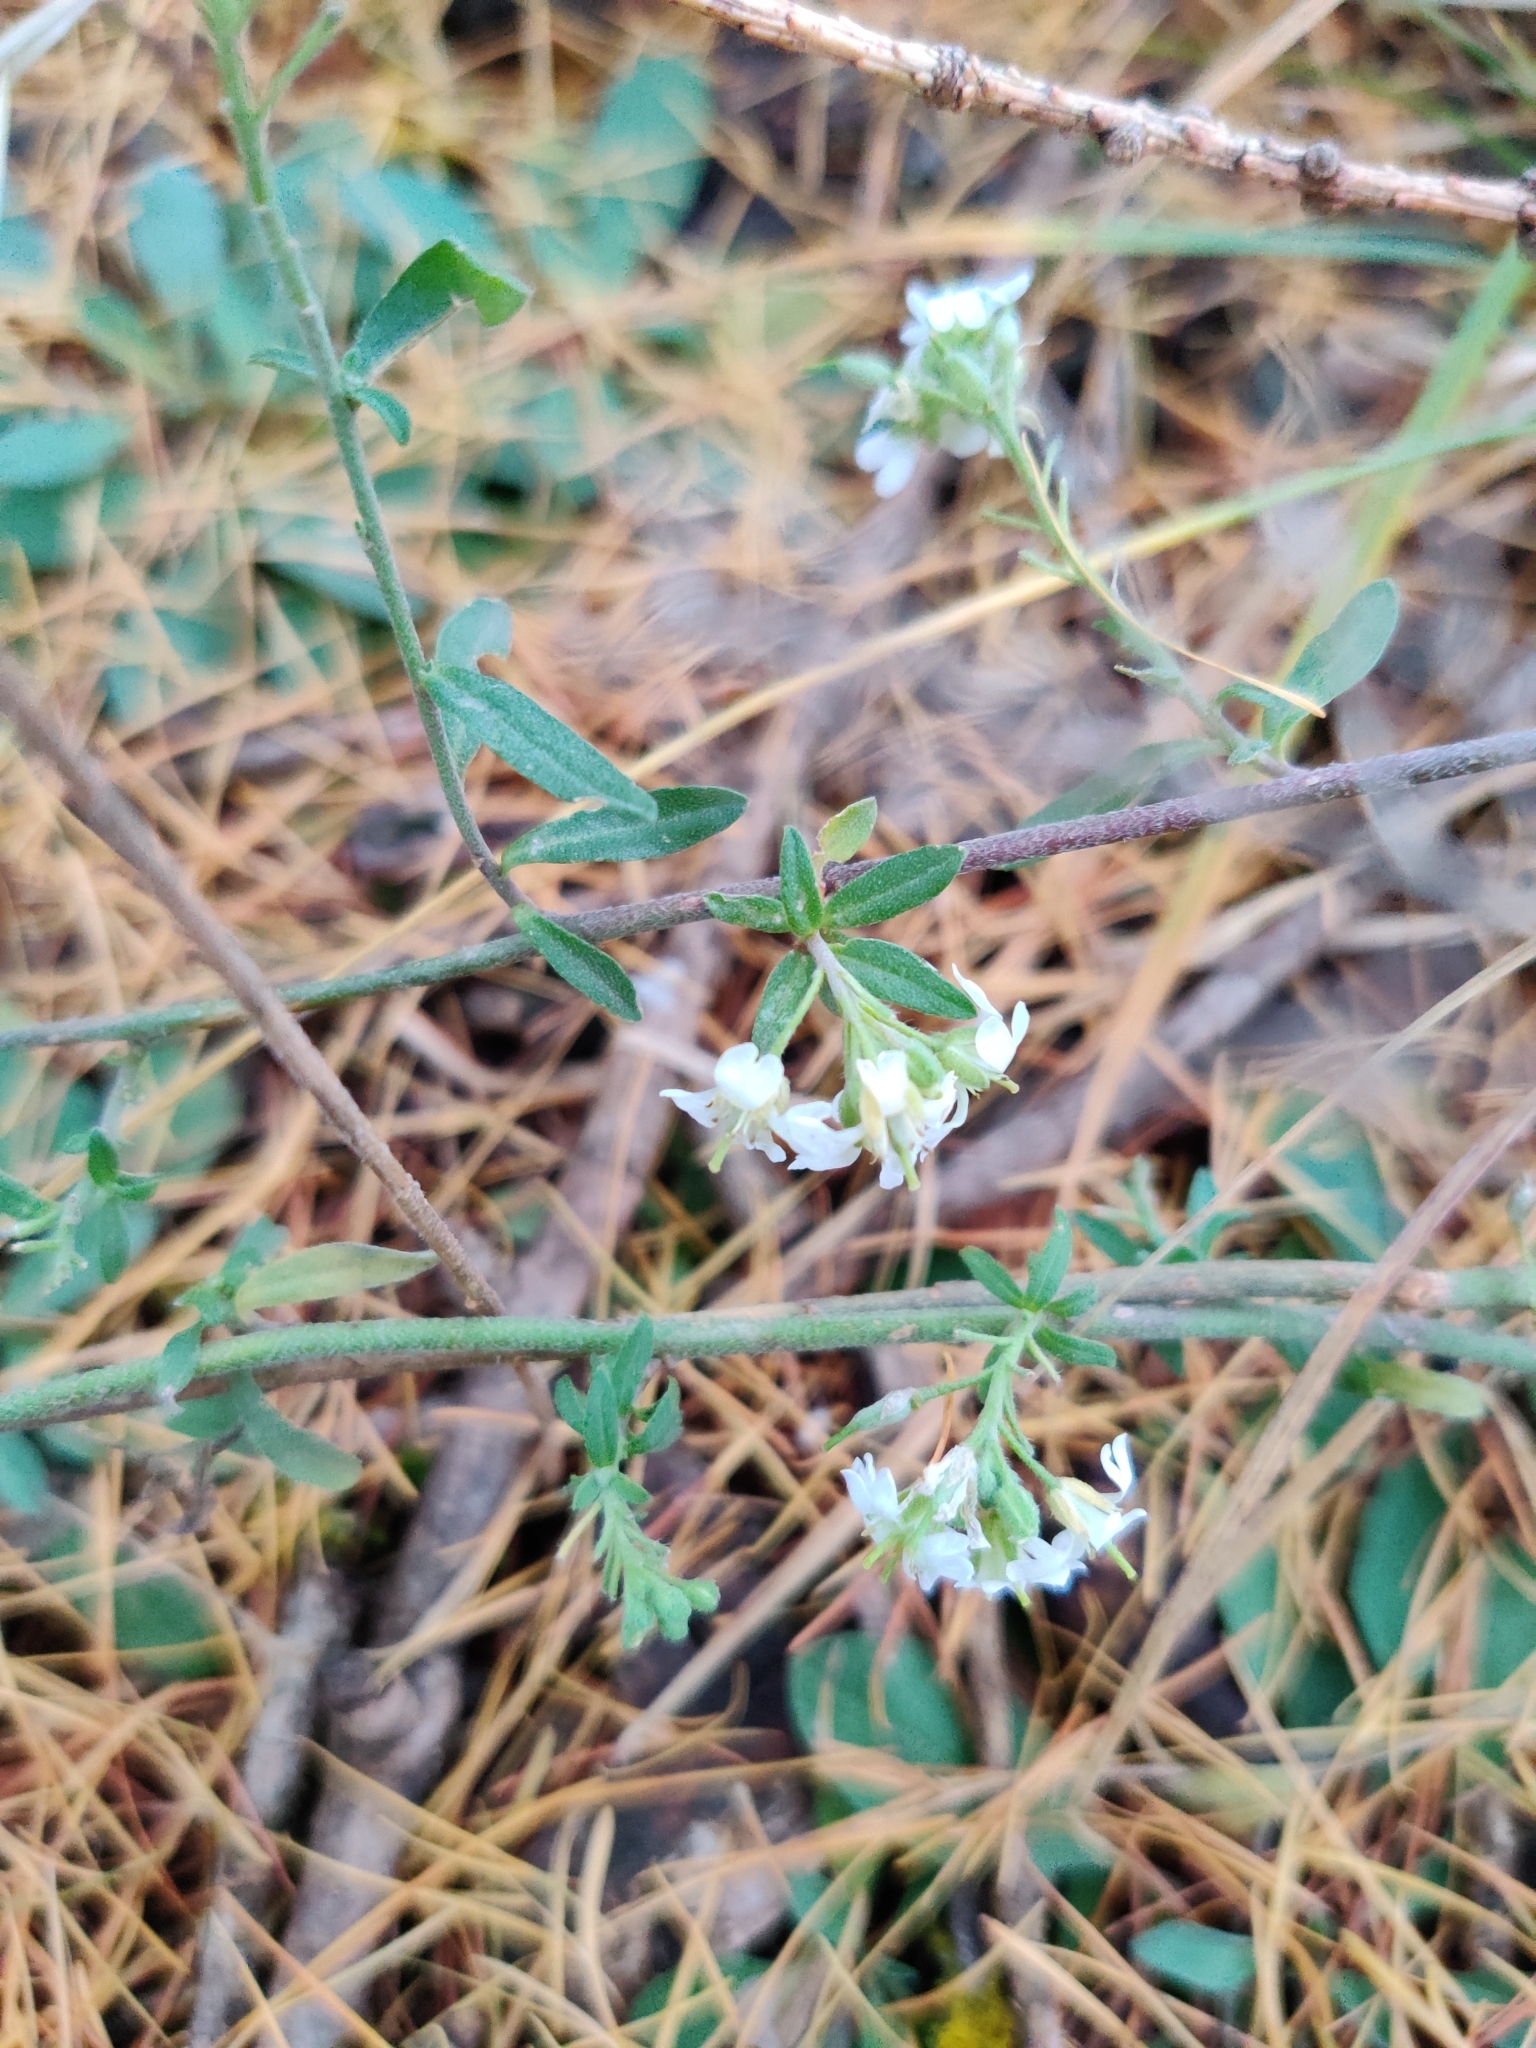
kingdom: Plantae
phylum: Tracheophyta
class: Magnoliopsida
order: Brassicales
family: Brassicaceae
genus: Berteroa
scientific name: Berteroa incana
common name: Hoary alison
